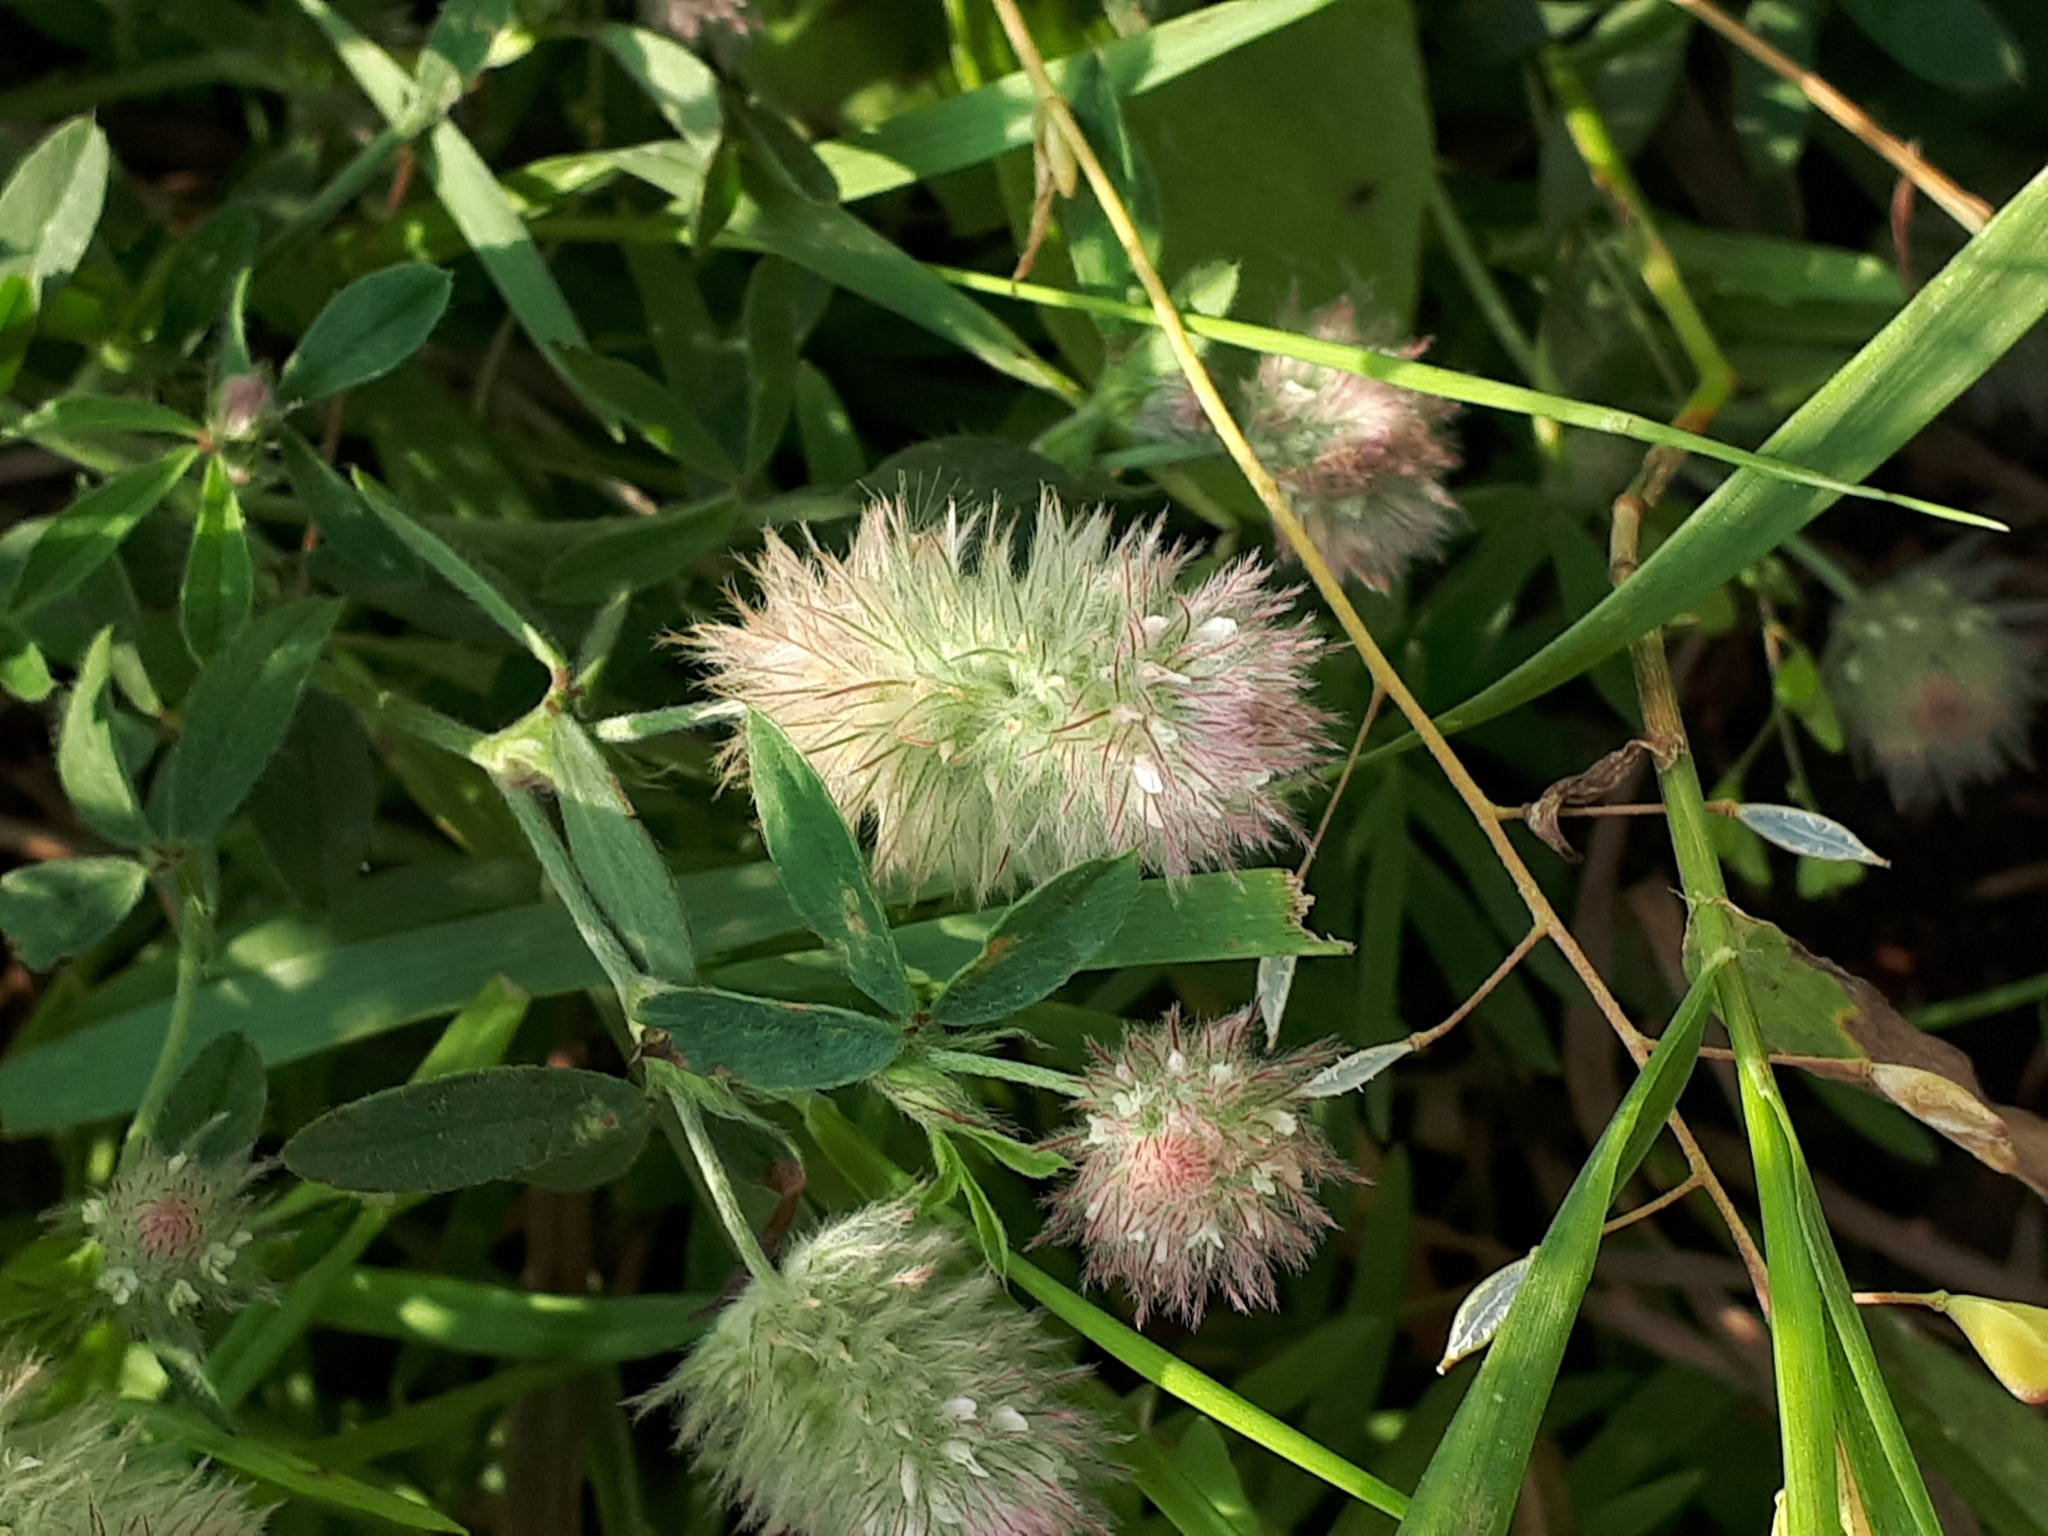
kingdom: Plantae
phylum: Tracheophyta
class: Magnoliopsida
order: Fabales
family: Fabaceae
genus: Trifolium
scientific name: Trifolium arvense
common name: Hare's-foot clover
